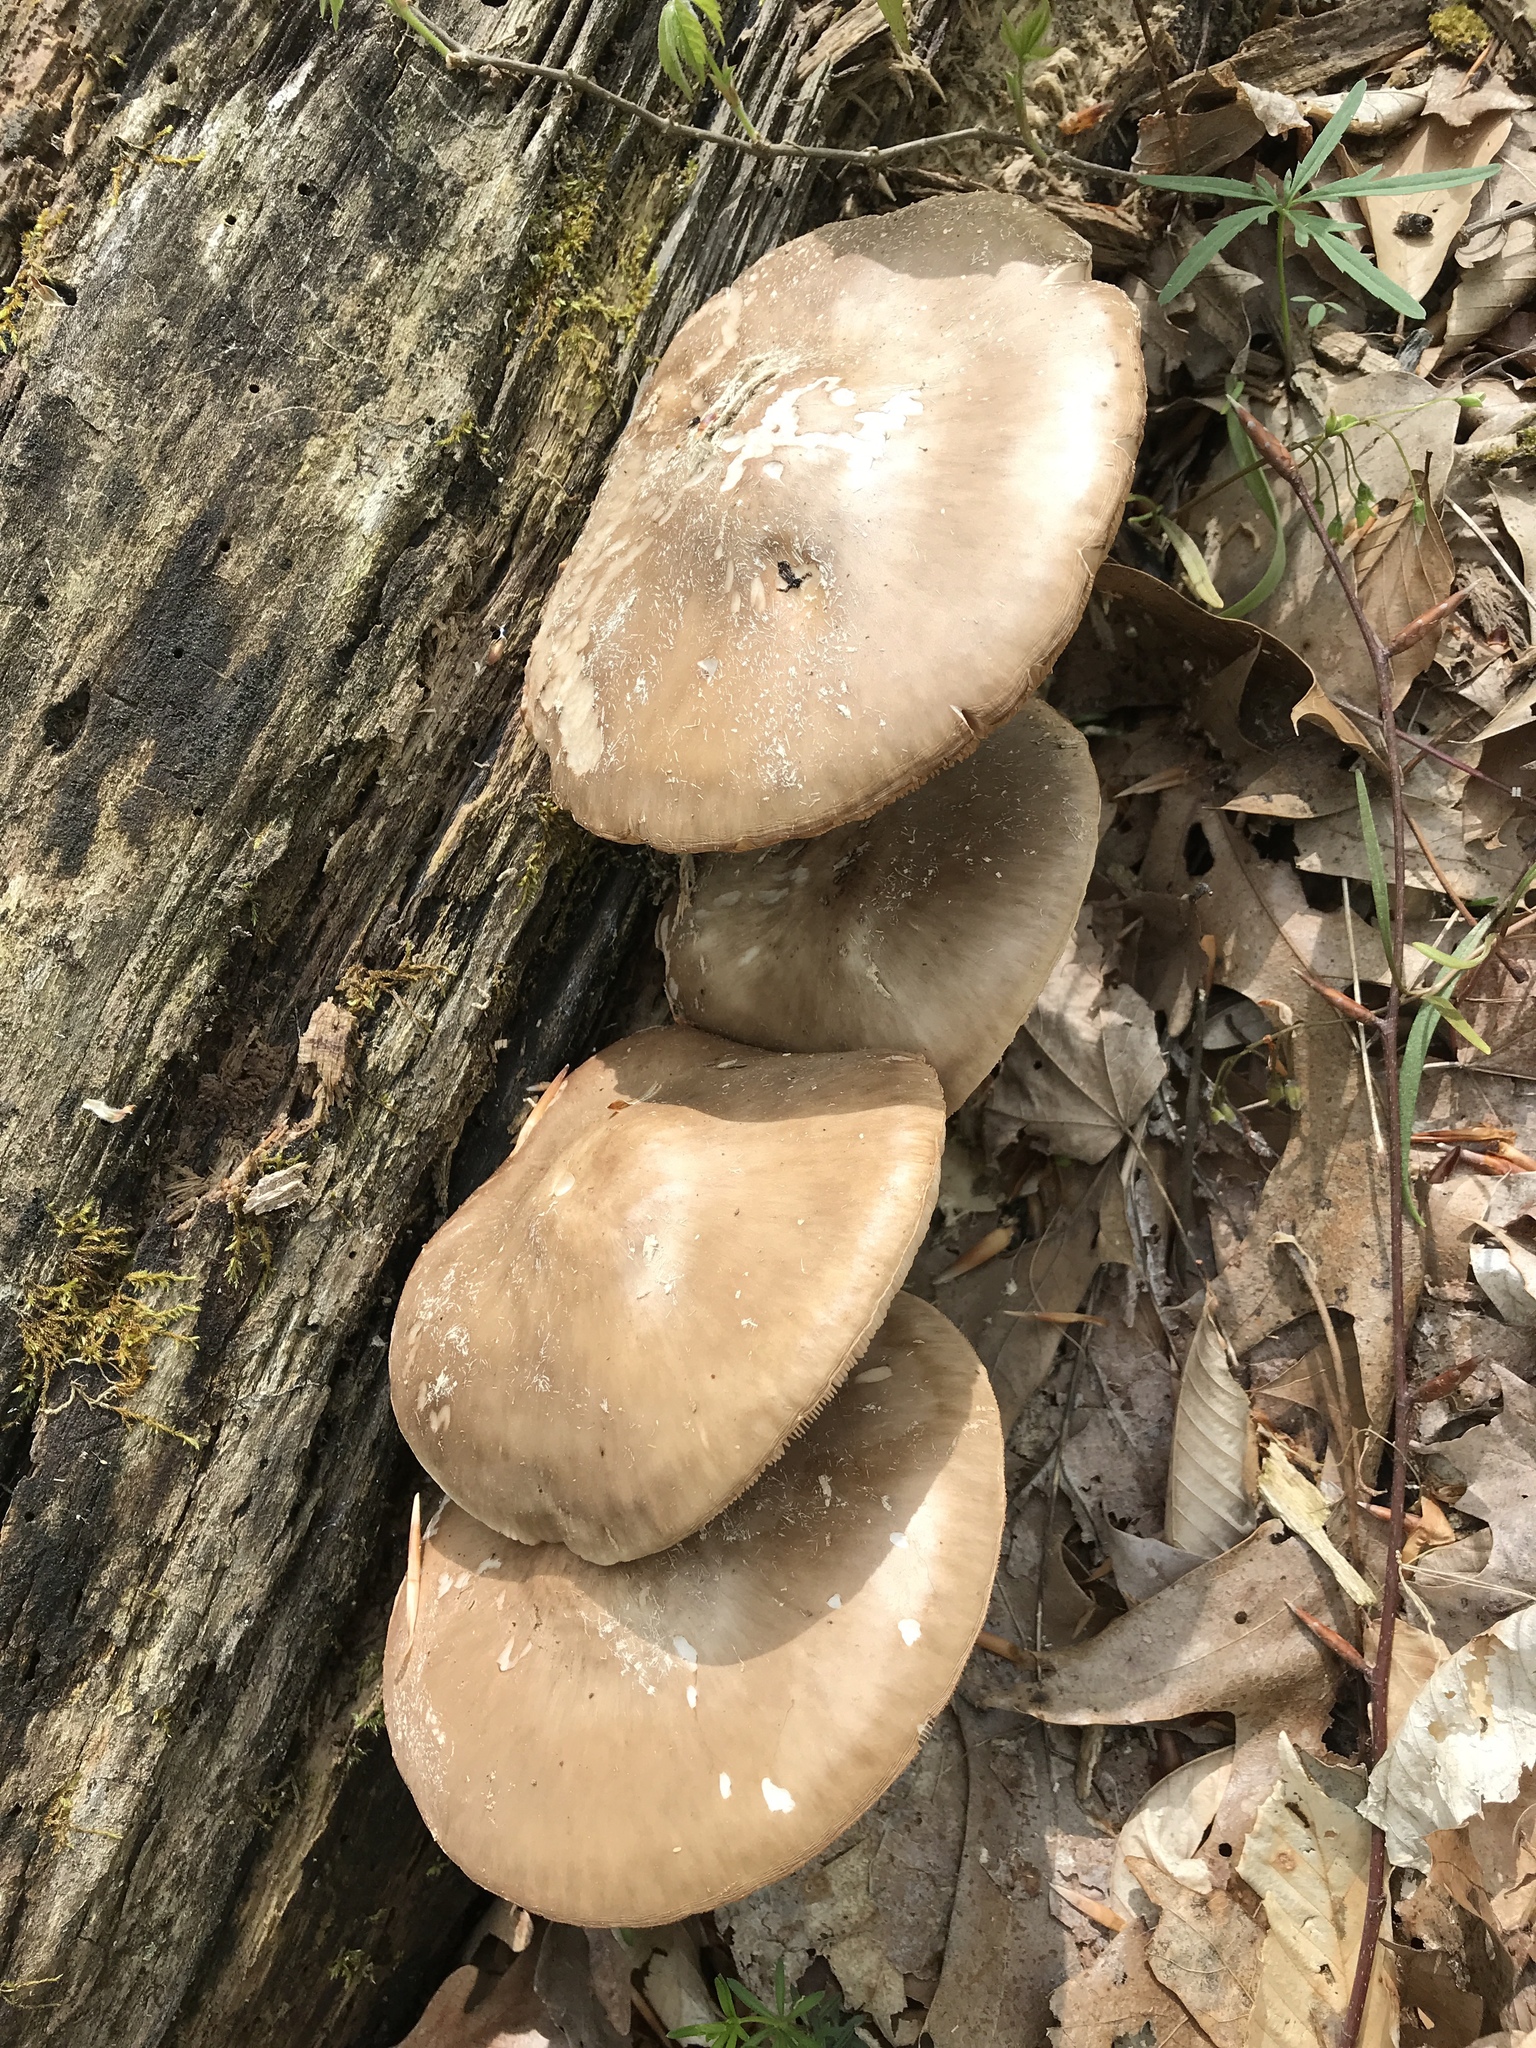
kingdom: Fungi
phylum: Basidiomycota
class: Agaricomycetes
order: Agaricales
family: Pluteaceae
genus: Pluteus
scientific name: Pluteus hongoi
